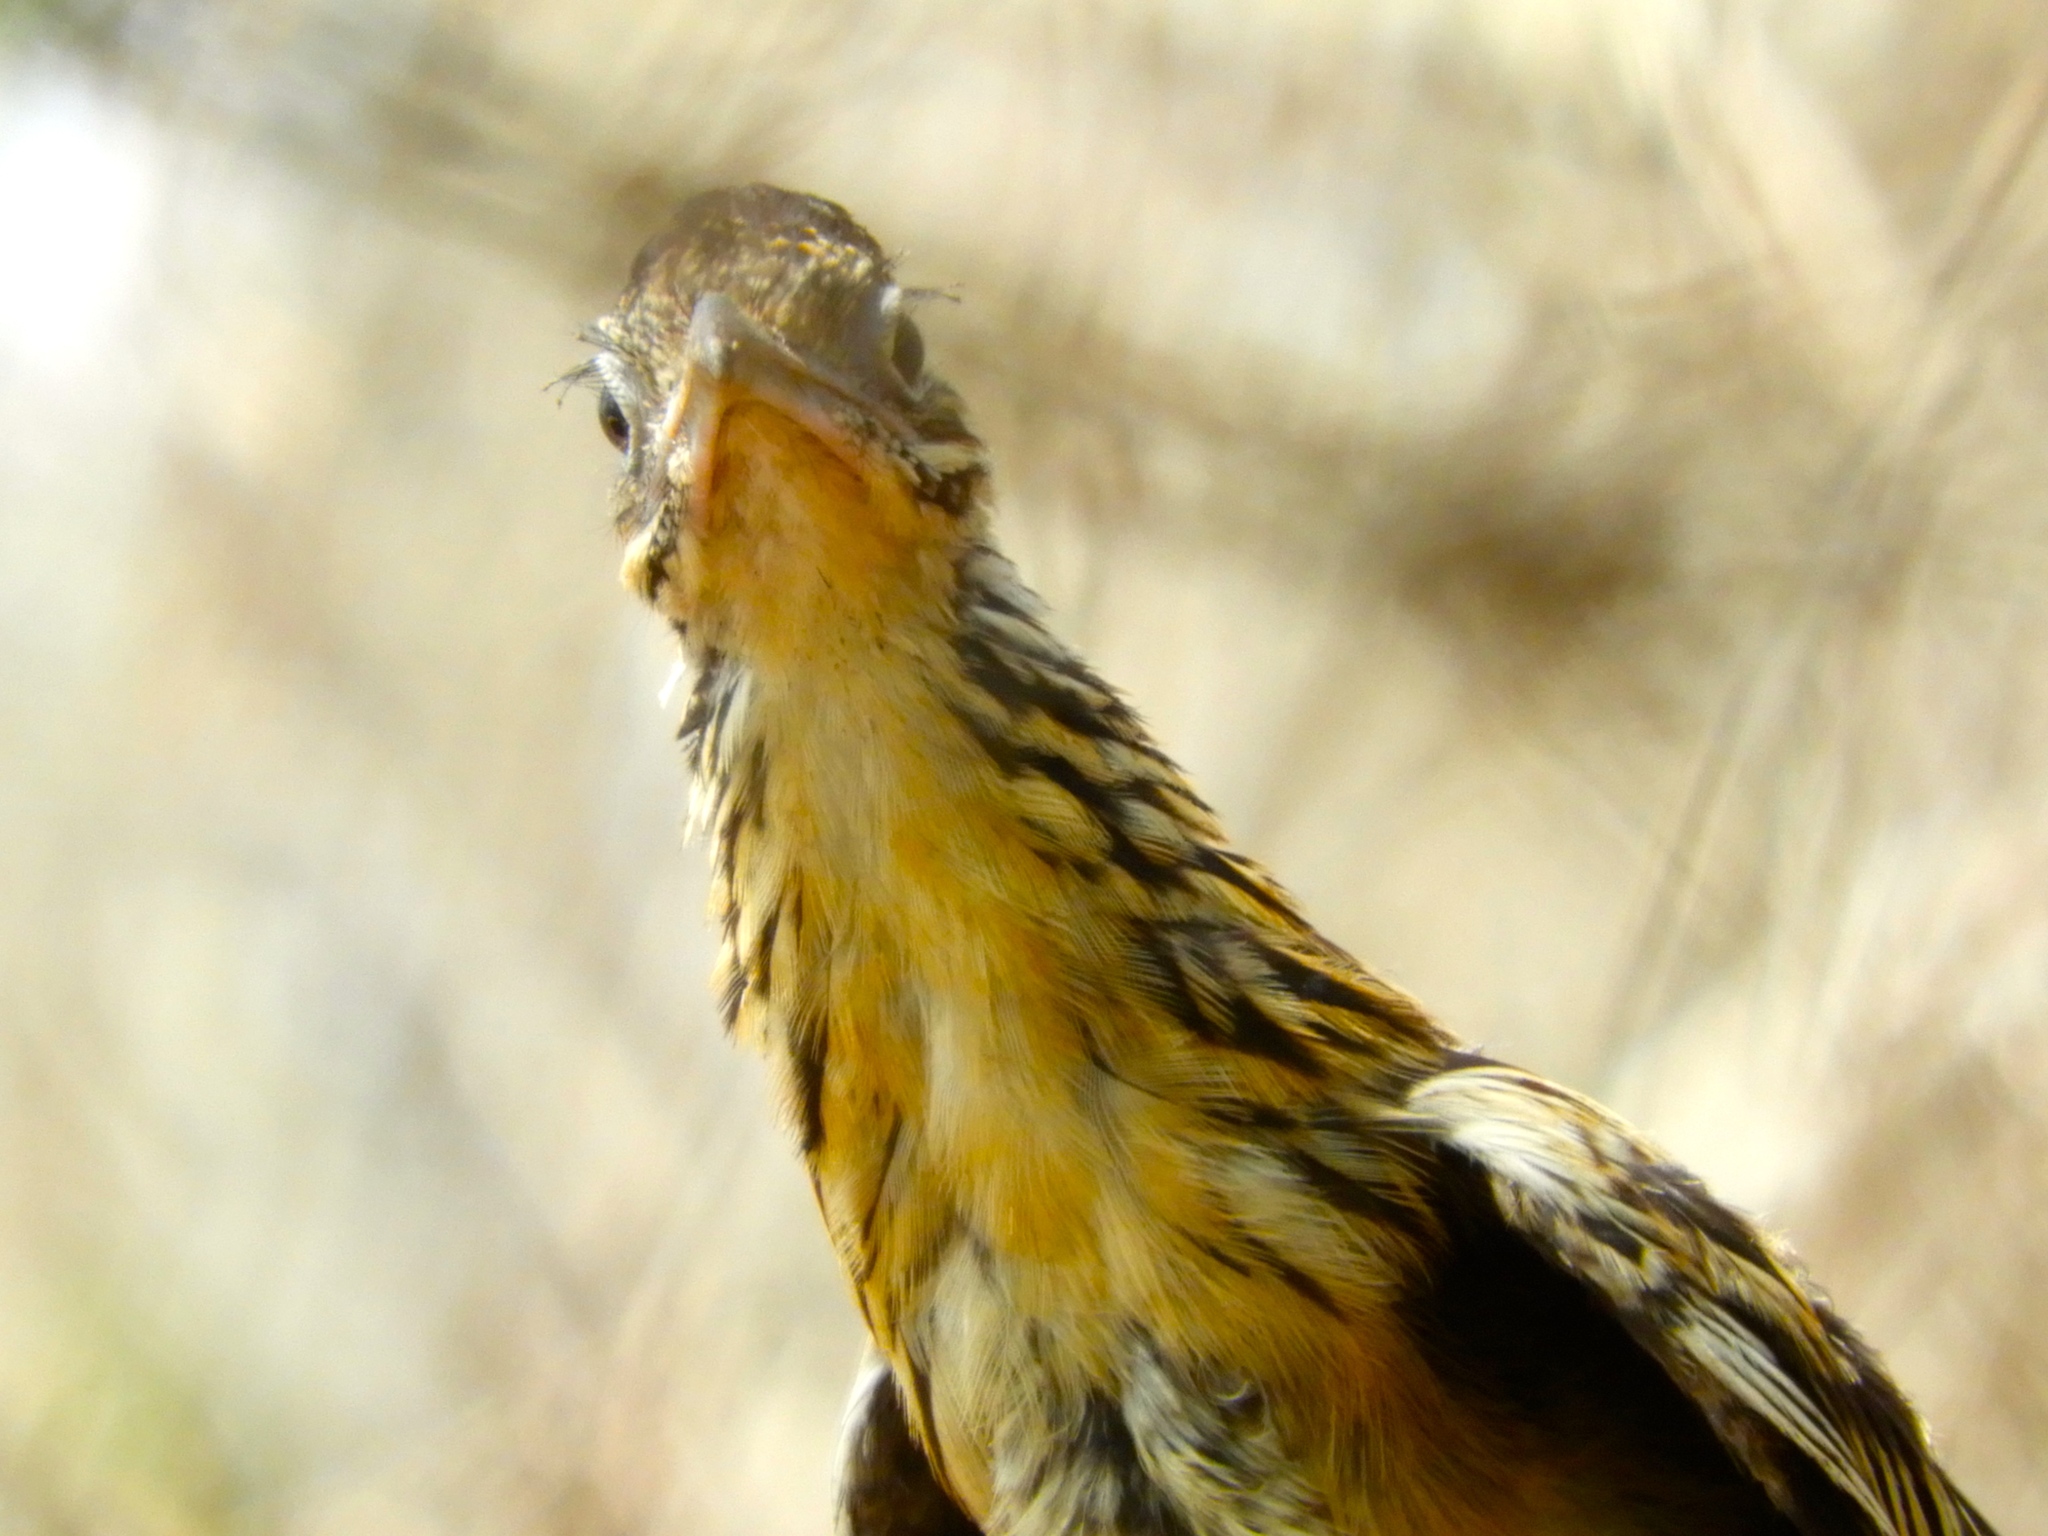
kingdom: Animalia
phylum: Chordata
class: Aves
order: Cuculiformes
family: Cuculidae
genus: Geococcyx
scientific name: Geococcyx velox
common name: Lesser roadrunner
